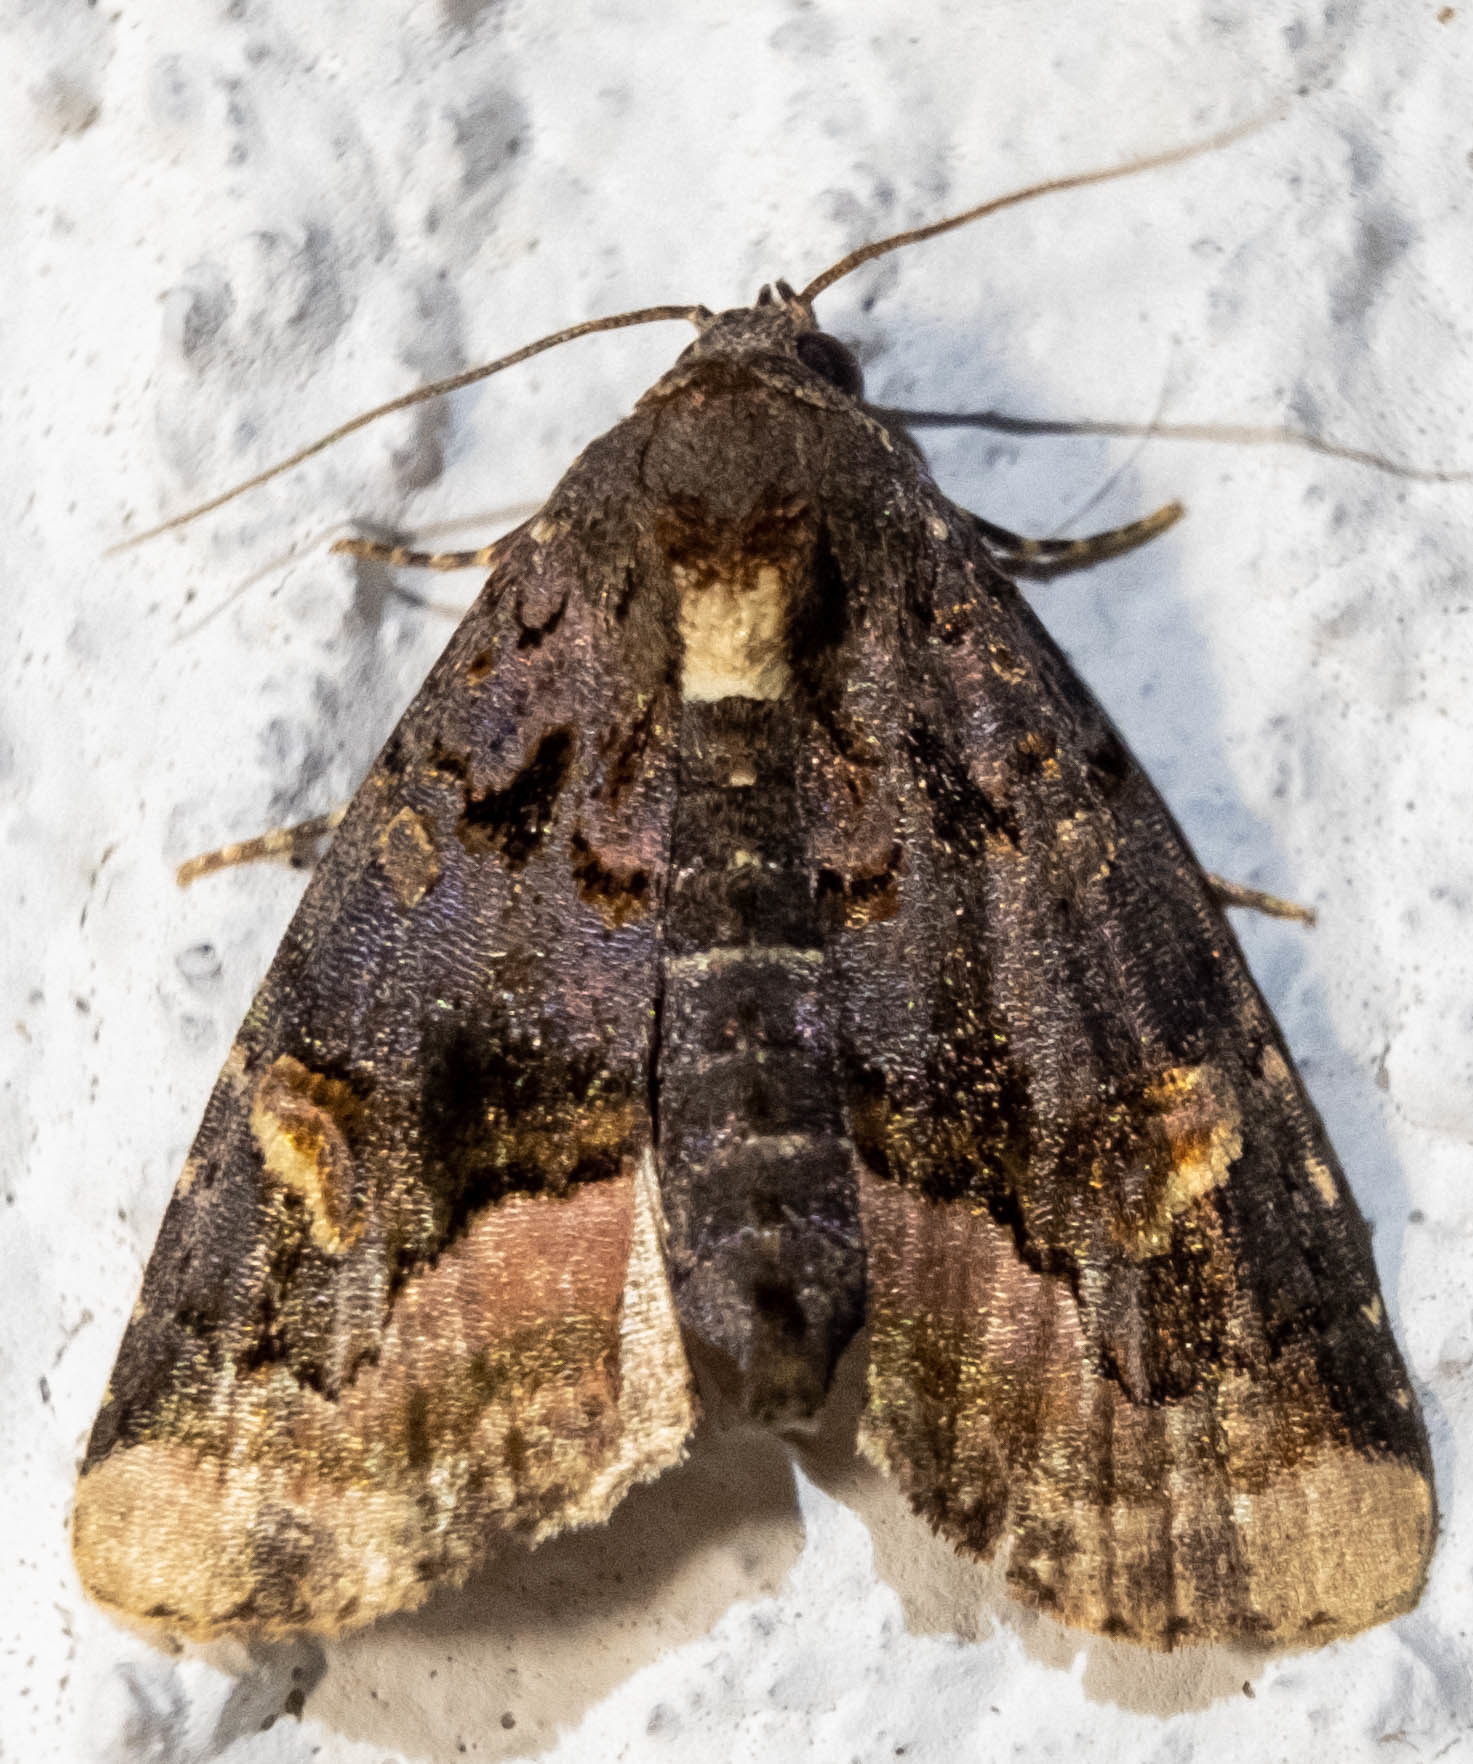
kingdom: Animalia
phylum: Arthropoda
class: Insecta
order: Lepidoptera
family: Noctuidae
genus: Homophoberia
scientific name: Homophoberia apicosa
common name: Black wedge-spot
